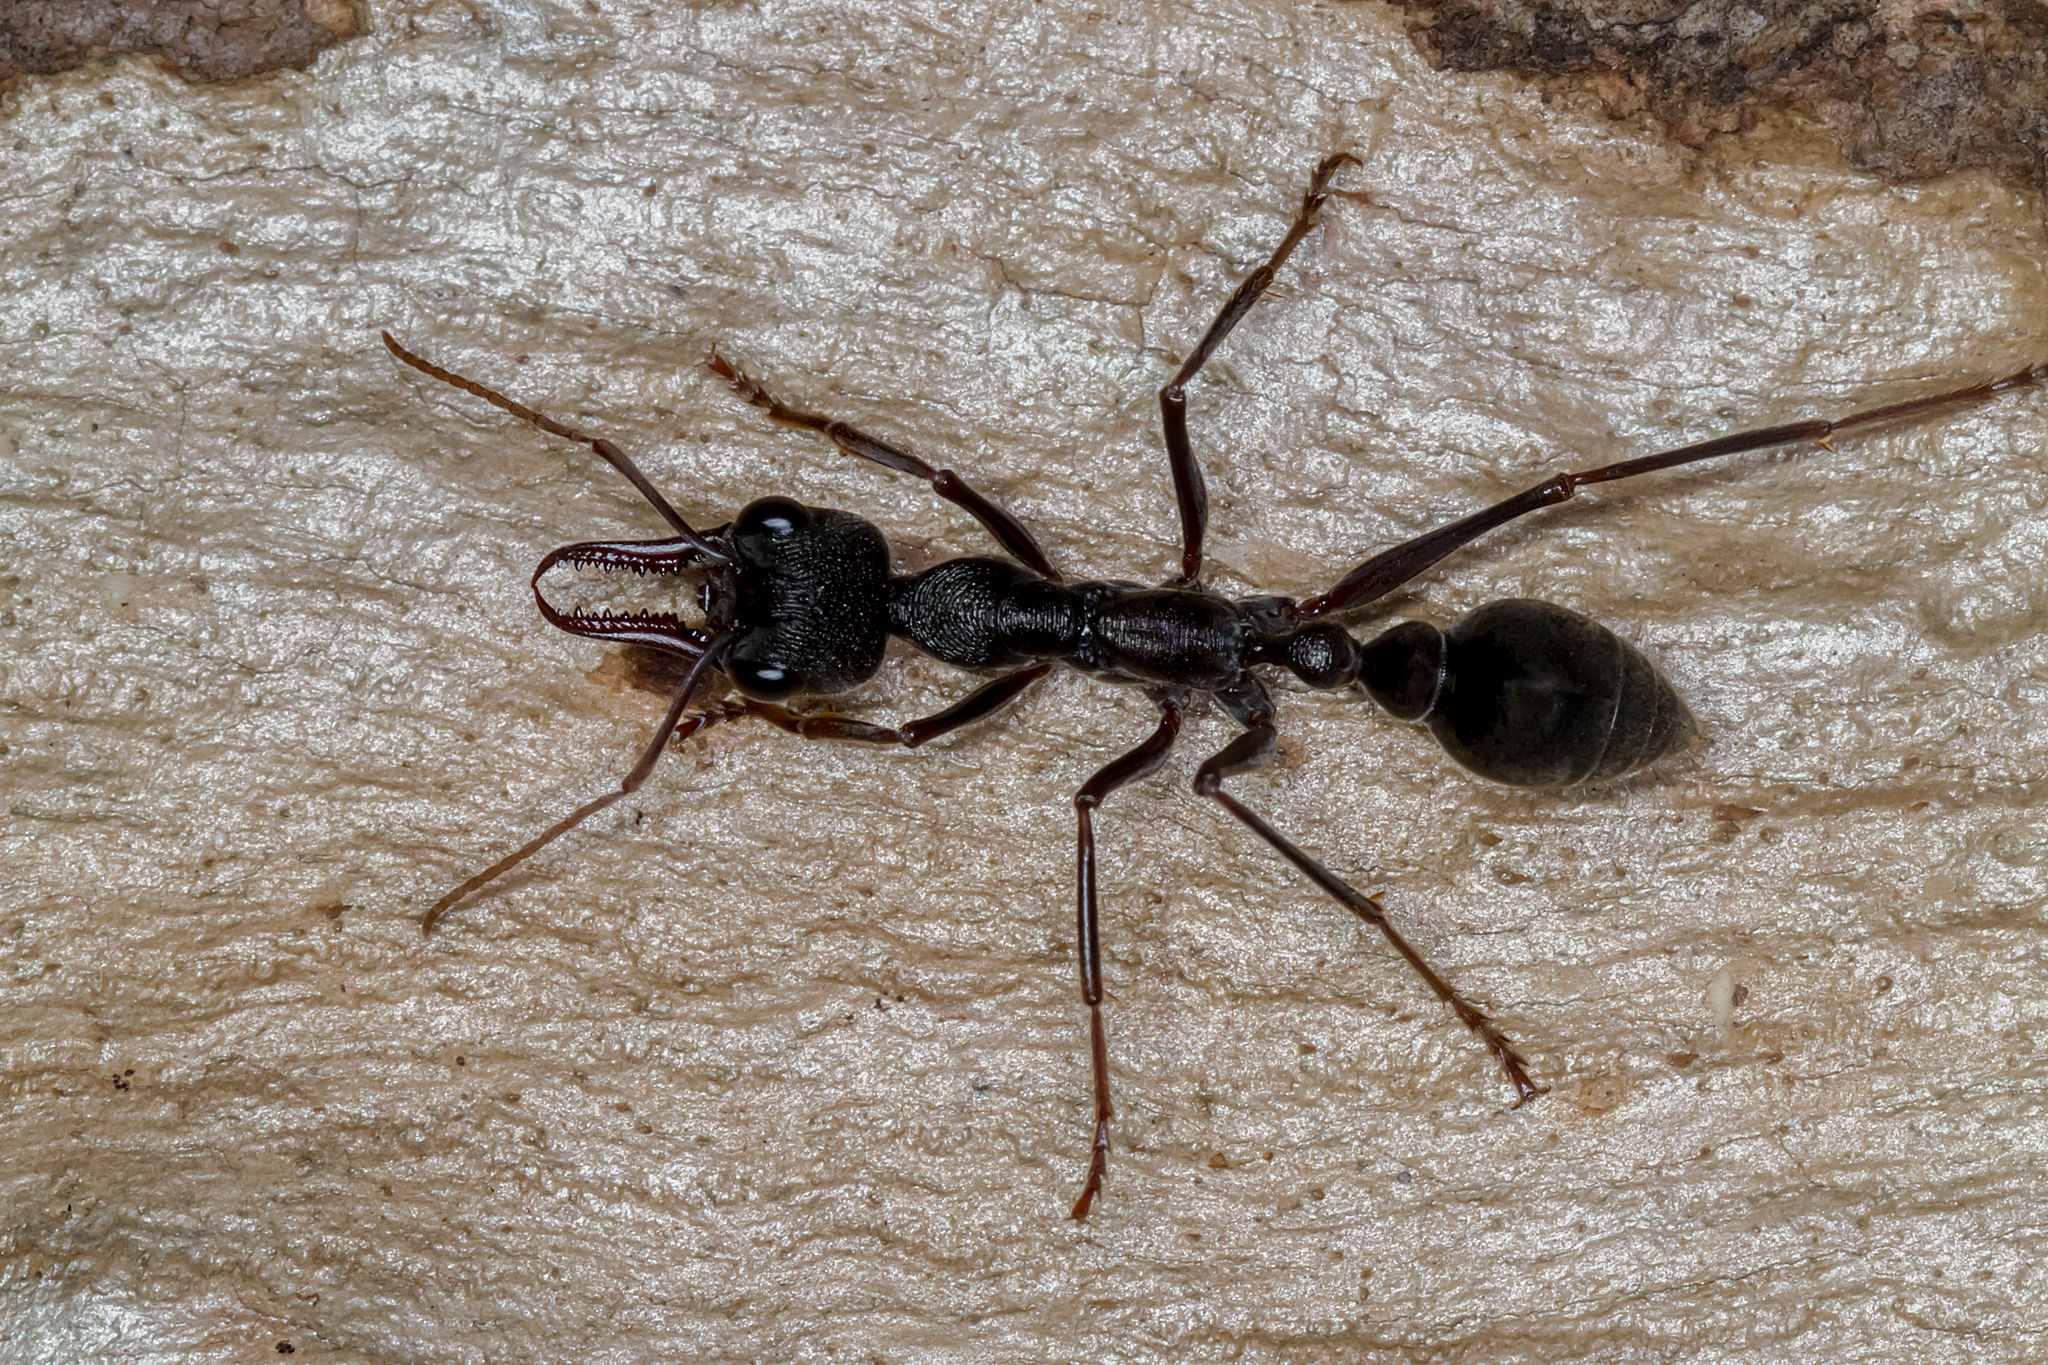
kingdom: Animalia
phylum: Arthropoda
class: Insecta
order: Hymenoptera
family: Formicidae
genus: Myrmecia
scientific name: Myrmecia pyriformis
